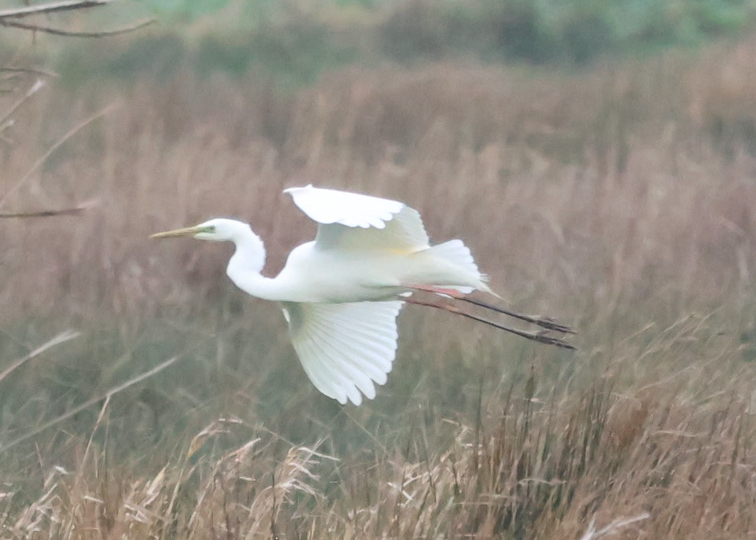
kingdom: Animalia
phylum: Chordata
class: Aves
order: Pelecaniformes
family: Ardeidae
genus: Ardea
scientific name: Ardea alba
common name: Great egret
